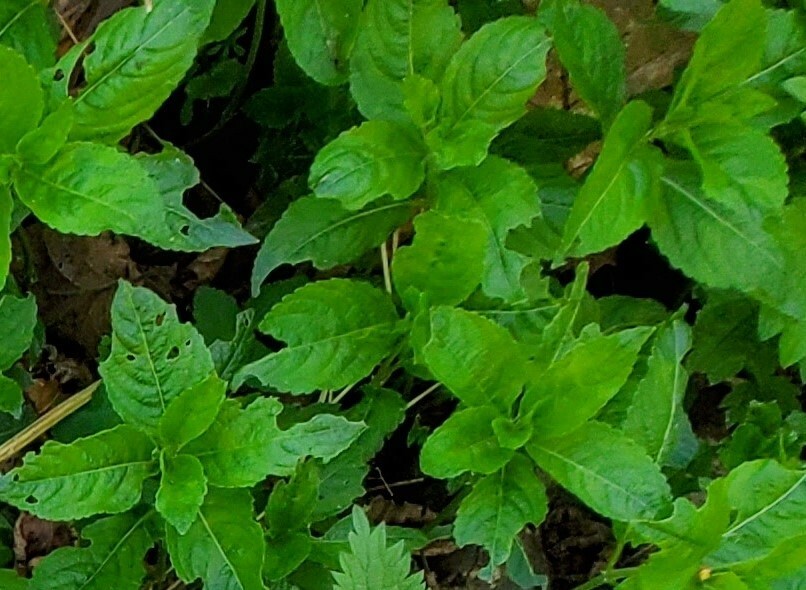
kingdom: Plantae
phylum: Tracheophyta
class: Magnoliopsida
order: Malpighiales
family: Euphorbiaceae
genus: Mercurialis
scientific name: Mercurialis perennis
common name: Dog mercury
